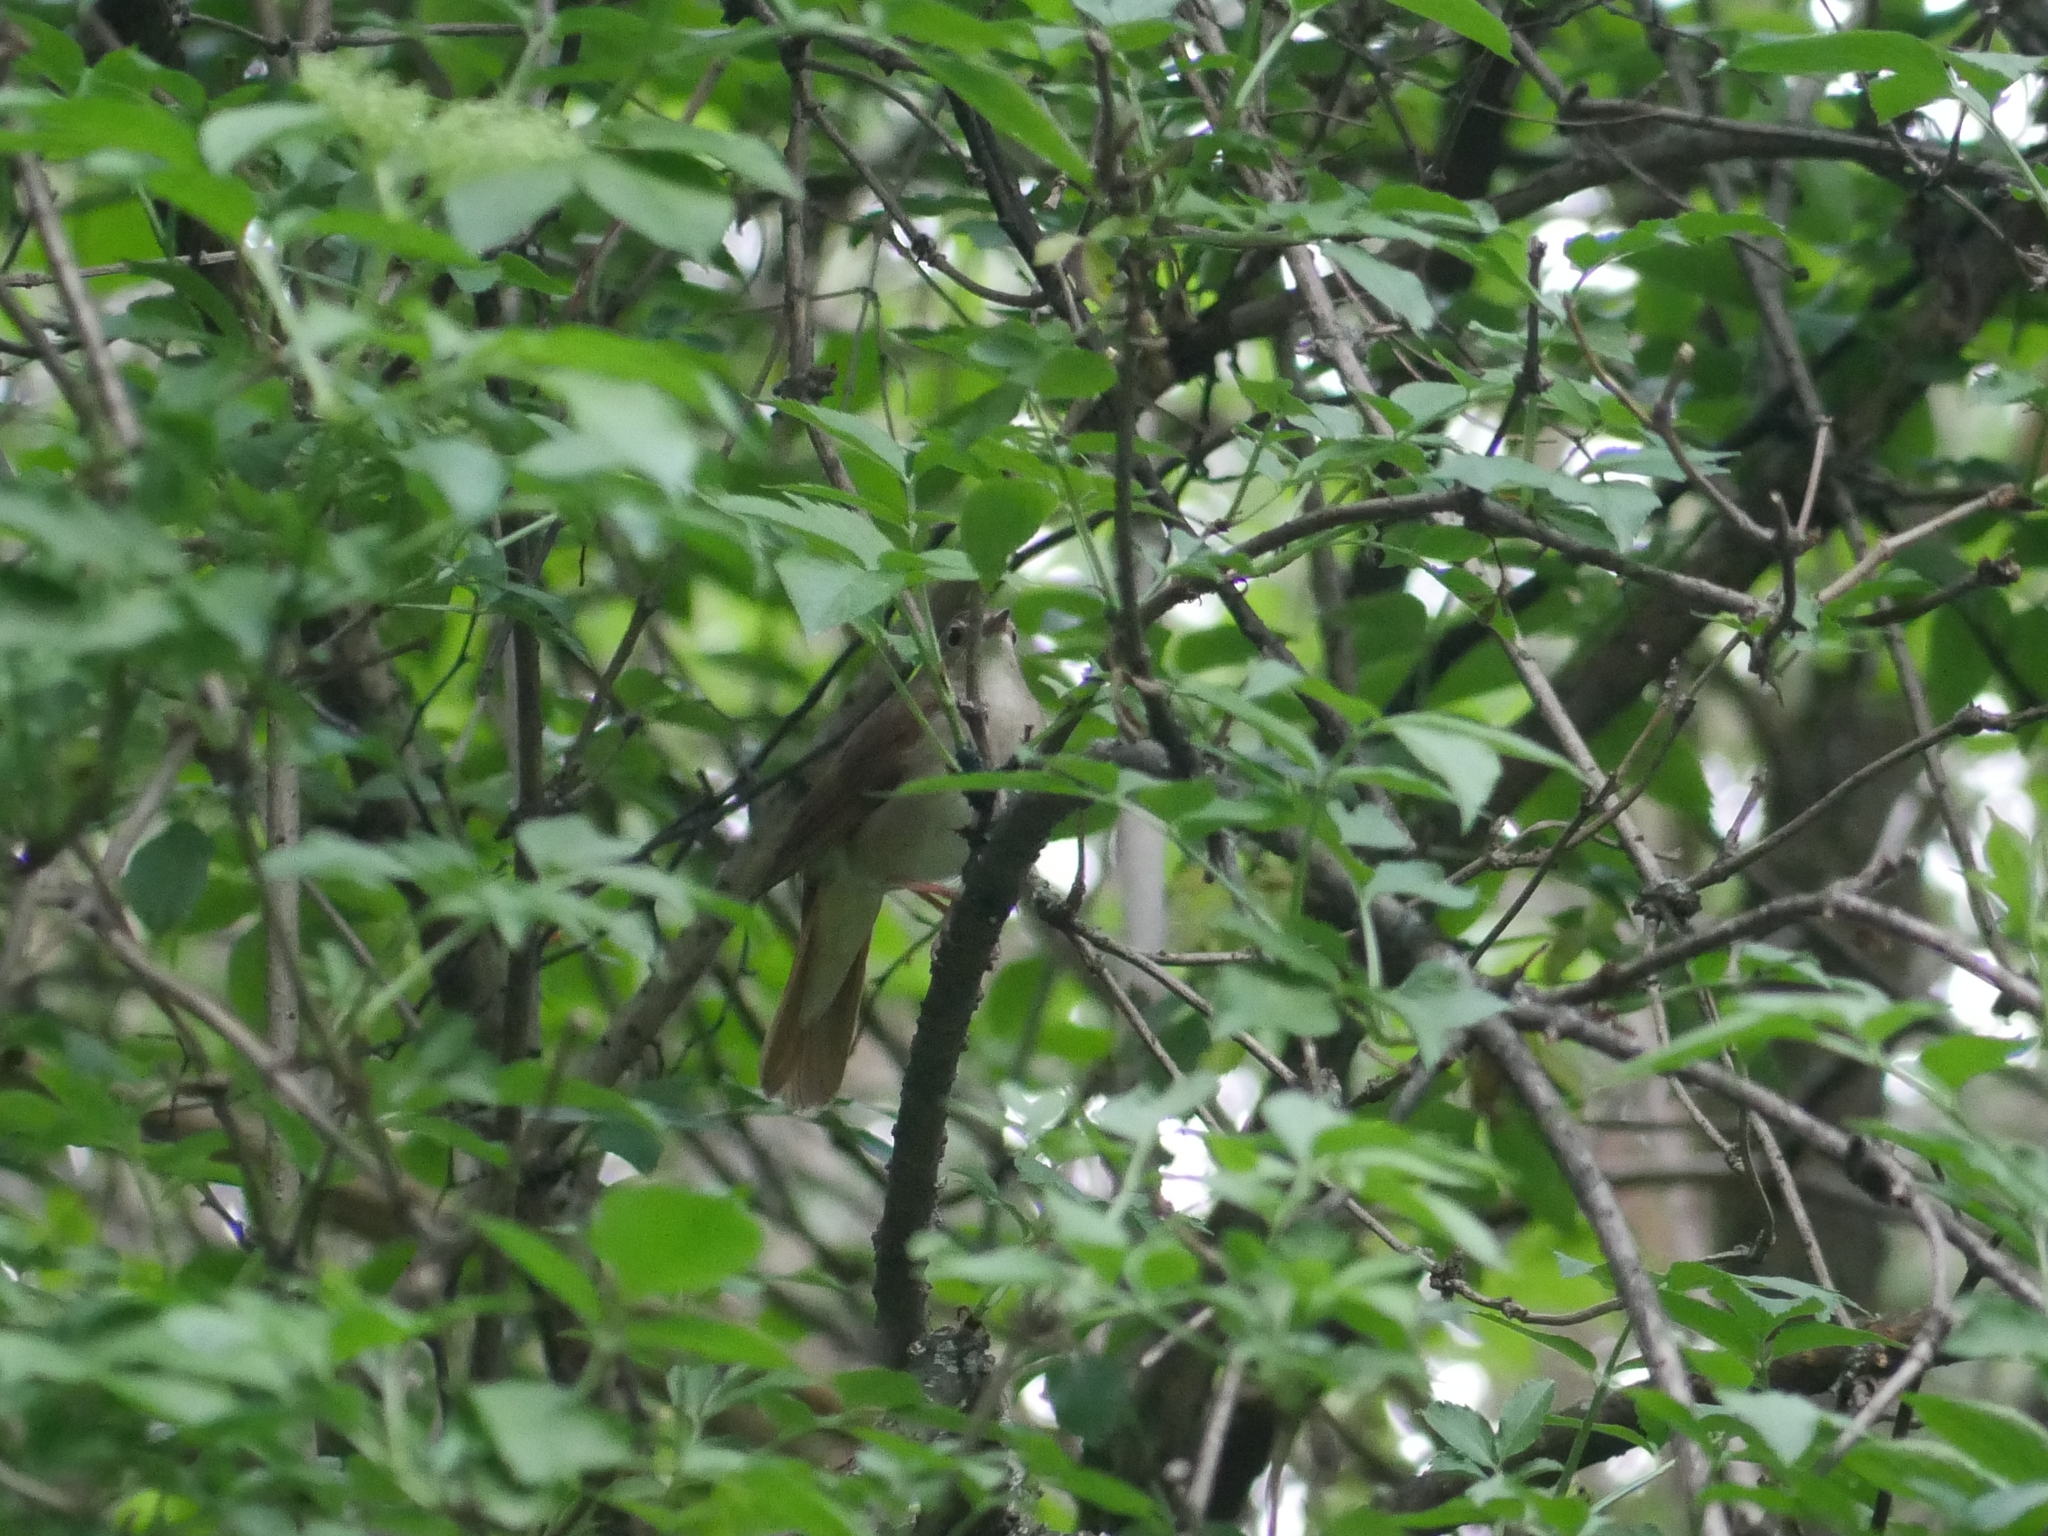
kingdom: Animalia
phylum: Chordata
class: Aves
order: Passeriformes
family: Muscicapidae
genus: Luscinia
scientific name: Luscinia megarhynchos
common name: Common nightingale
